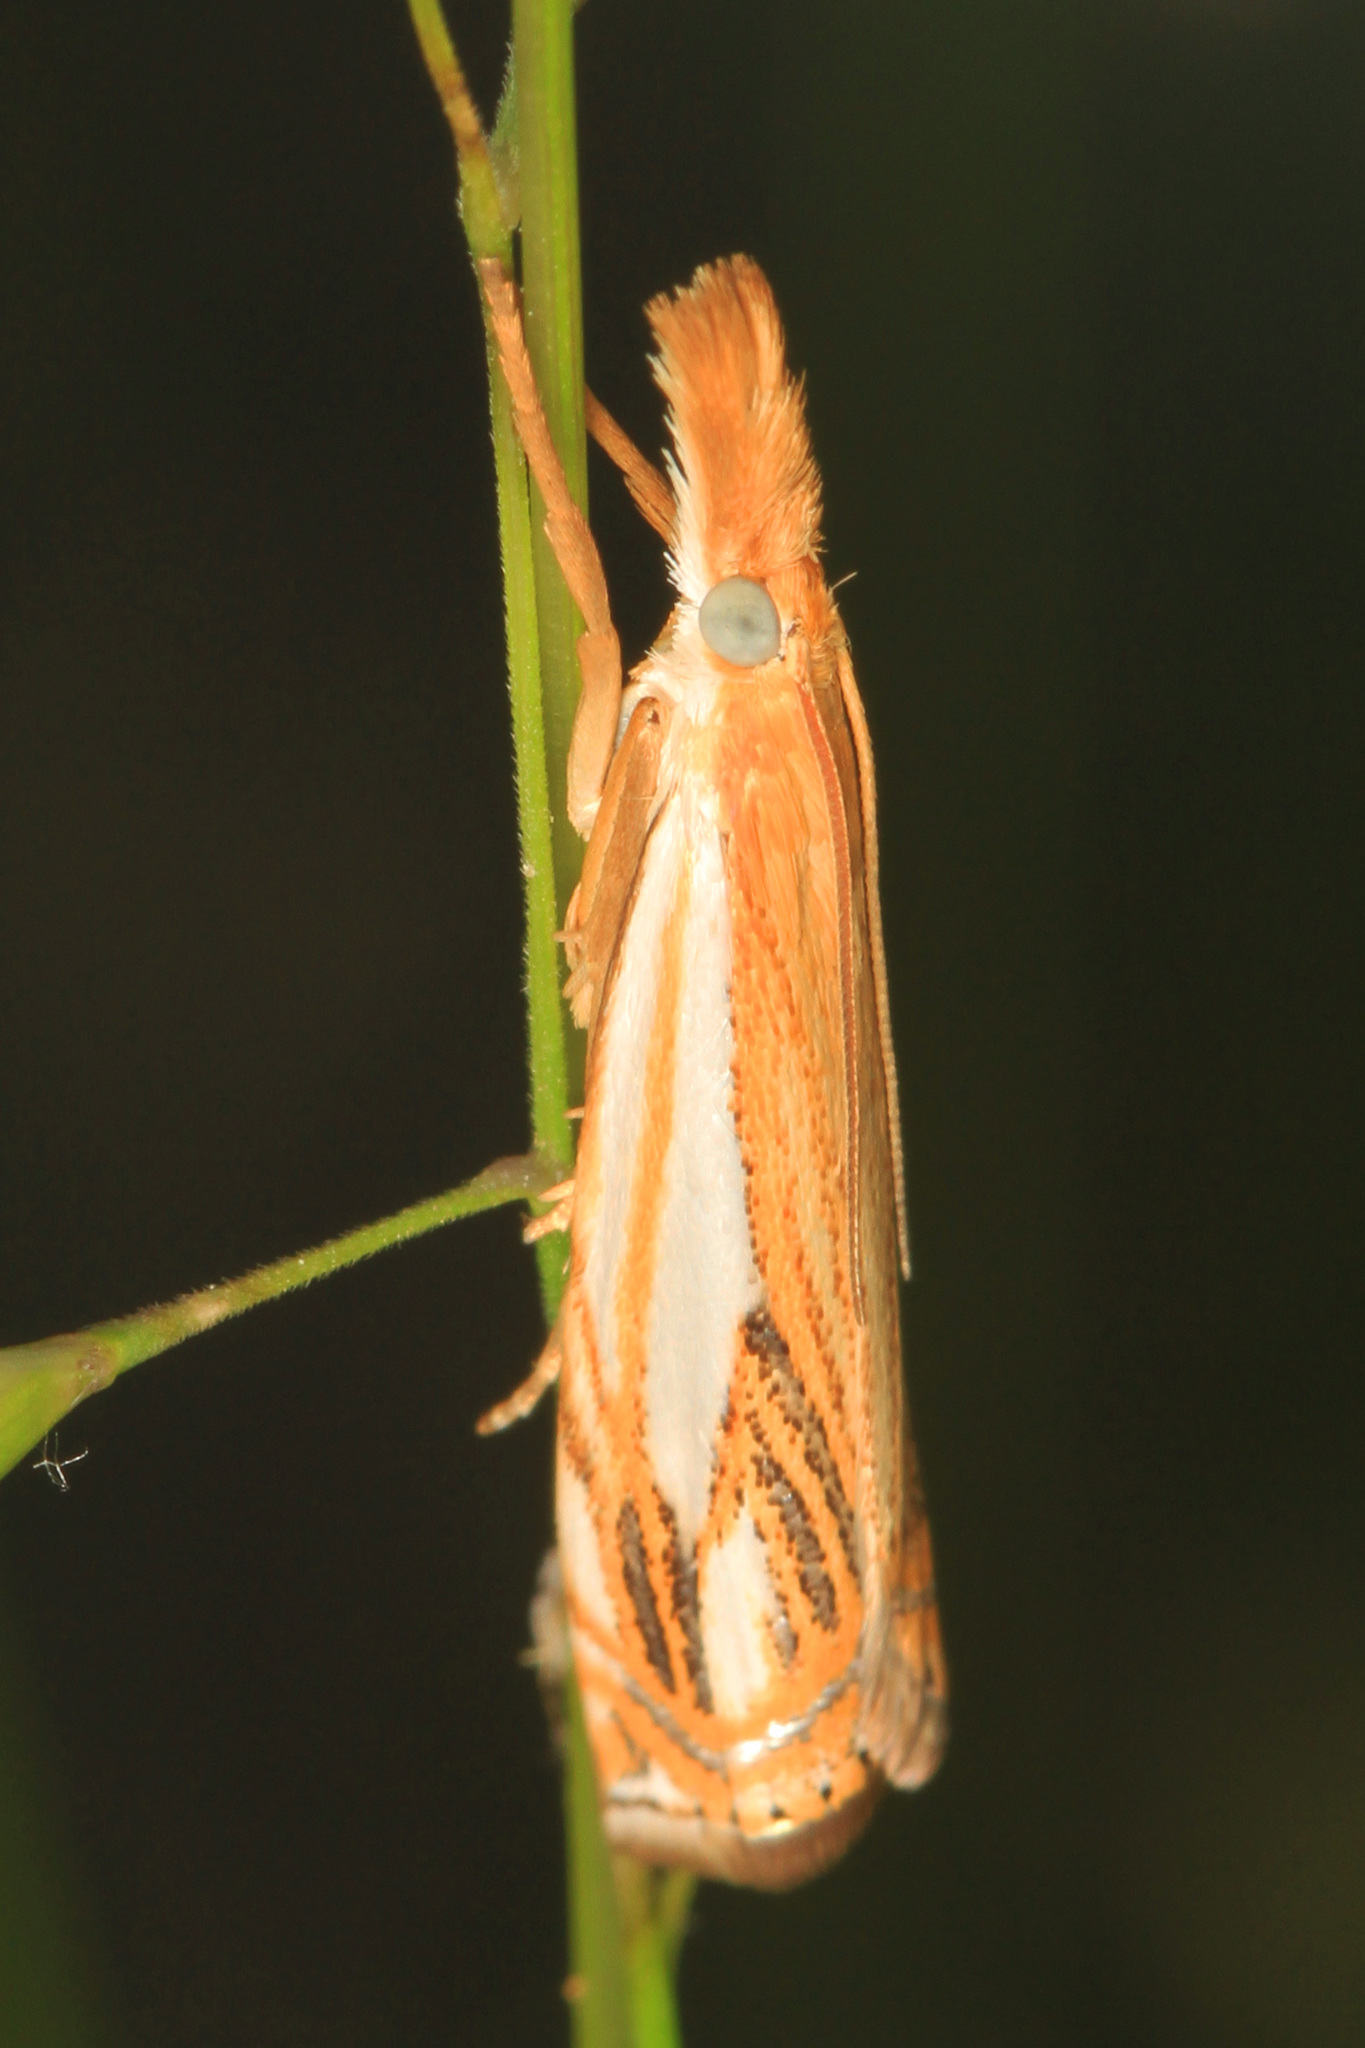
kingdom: Animalia
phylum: Arthropoda
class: Insecta
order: Lepidoptera
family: Crambidae
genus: Crambus
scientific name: Crambus agitatellus
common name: Double-banded grass-veneer
